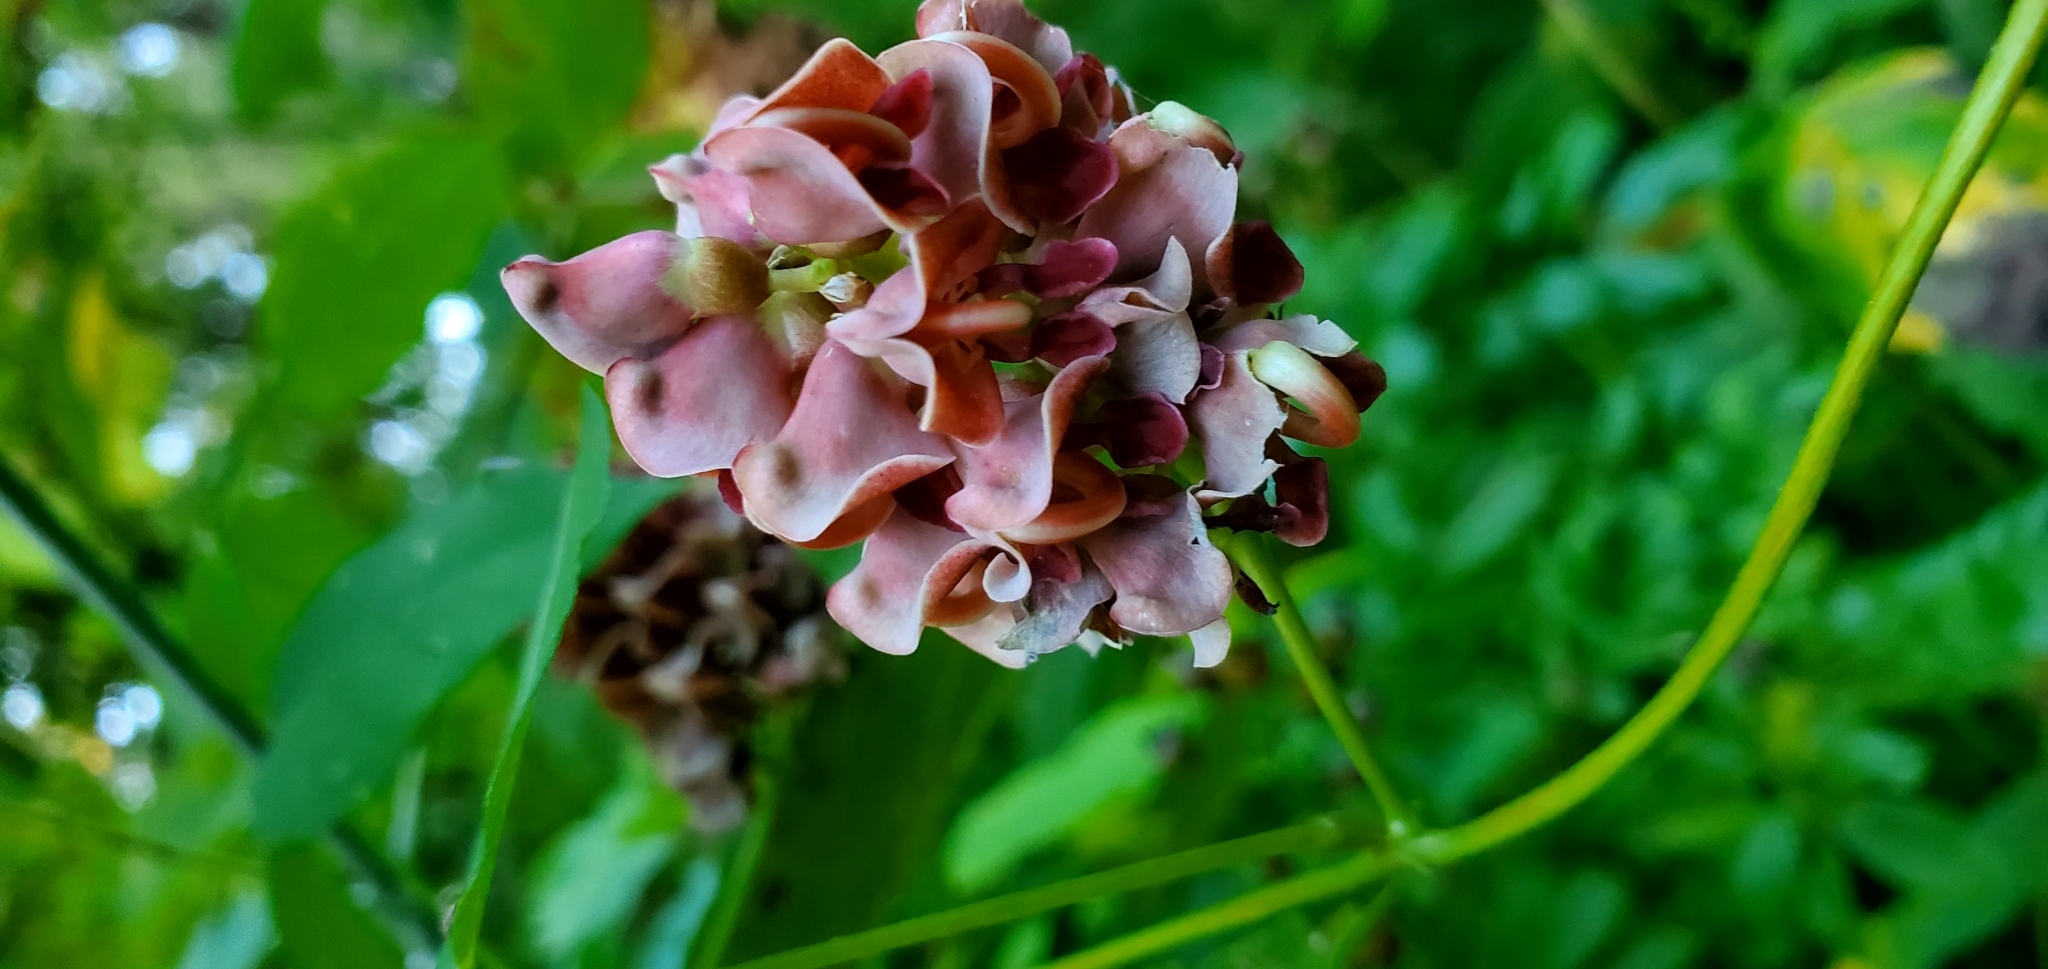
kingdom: Plantae
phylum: Tracheophyta
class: Magnoliopsida
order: Fabales
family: Fabaceae
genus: Apios
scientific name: Apios americana
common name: American potato-bean
